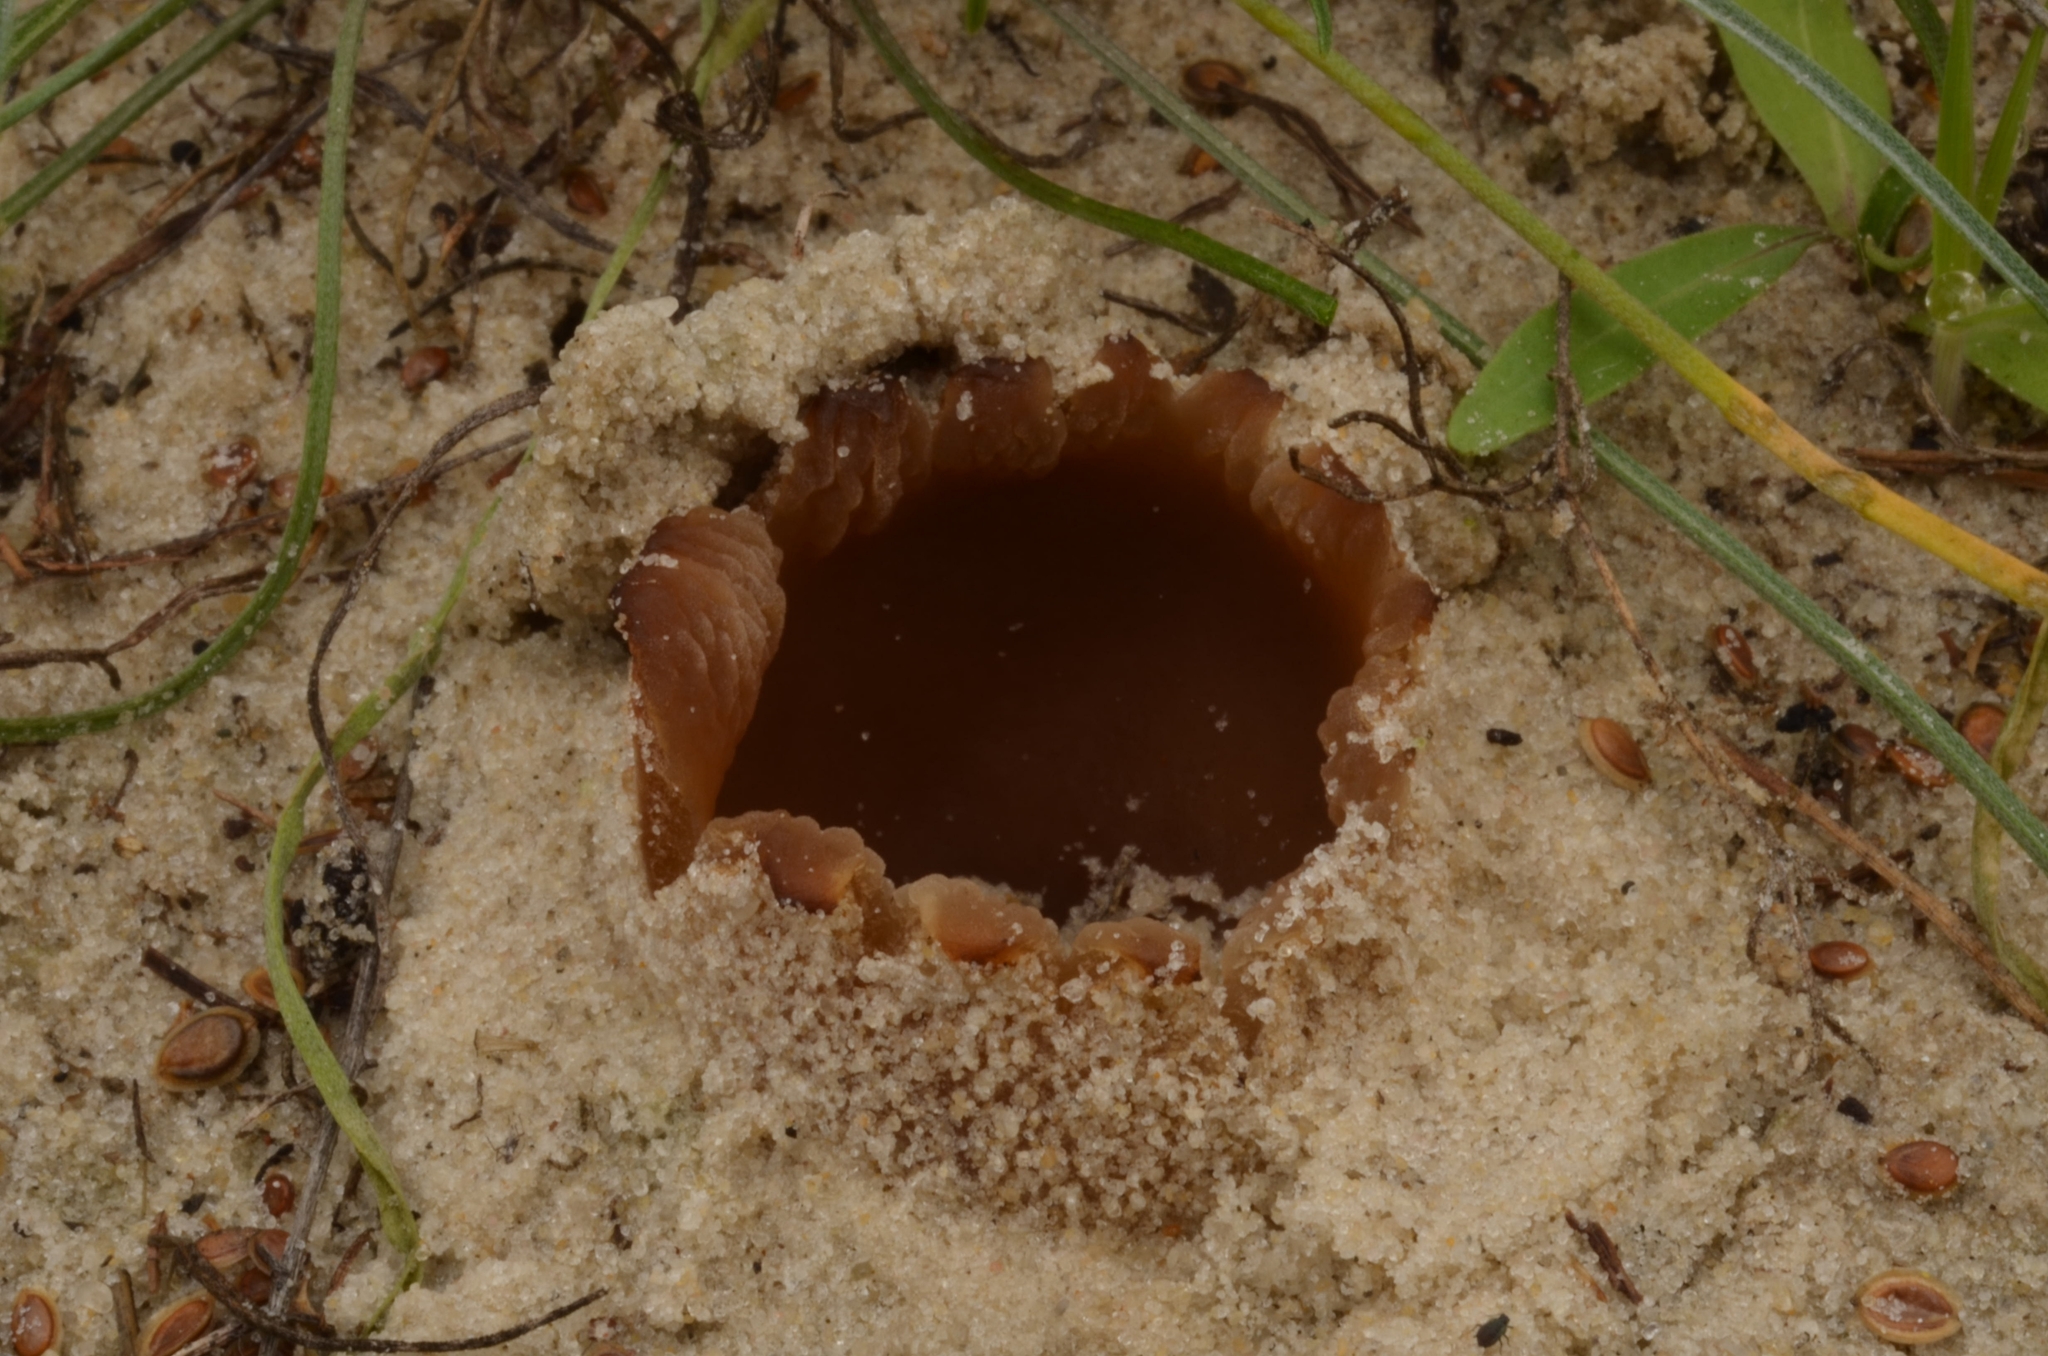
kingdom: Fungi
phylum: Ascomycota
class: Pezizomycetes
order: Pezizales
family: Pezizaceae
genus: Peziza
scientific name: Peziza ammophila
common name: Dune cup
